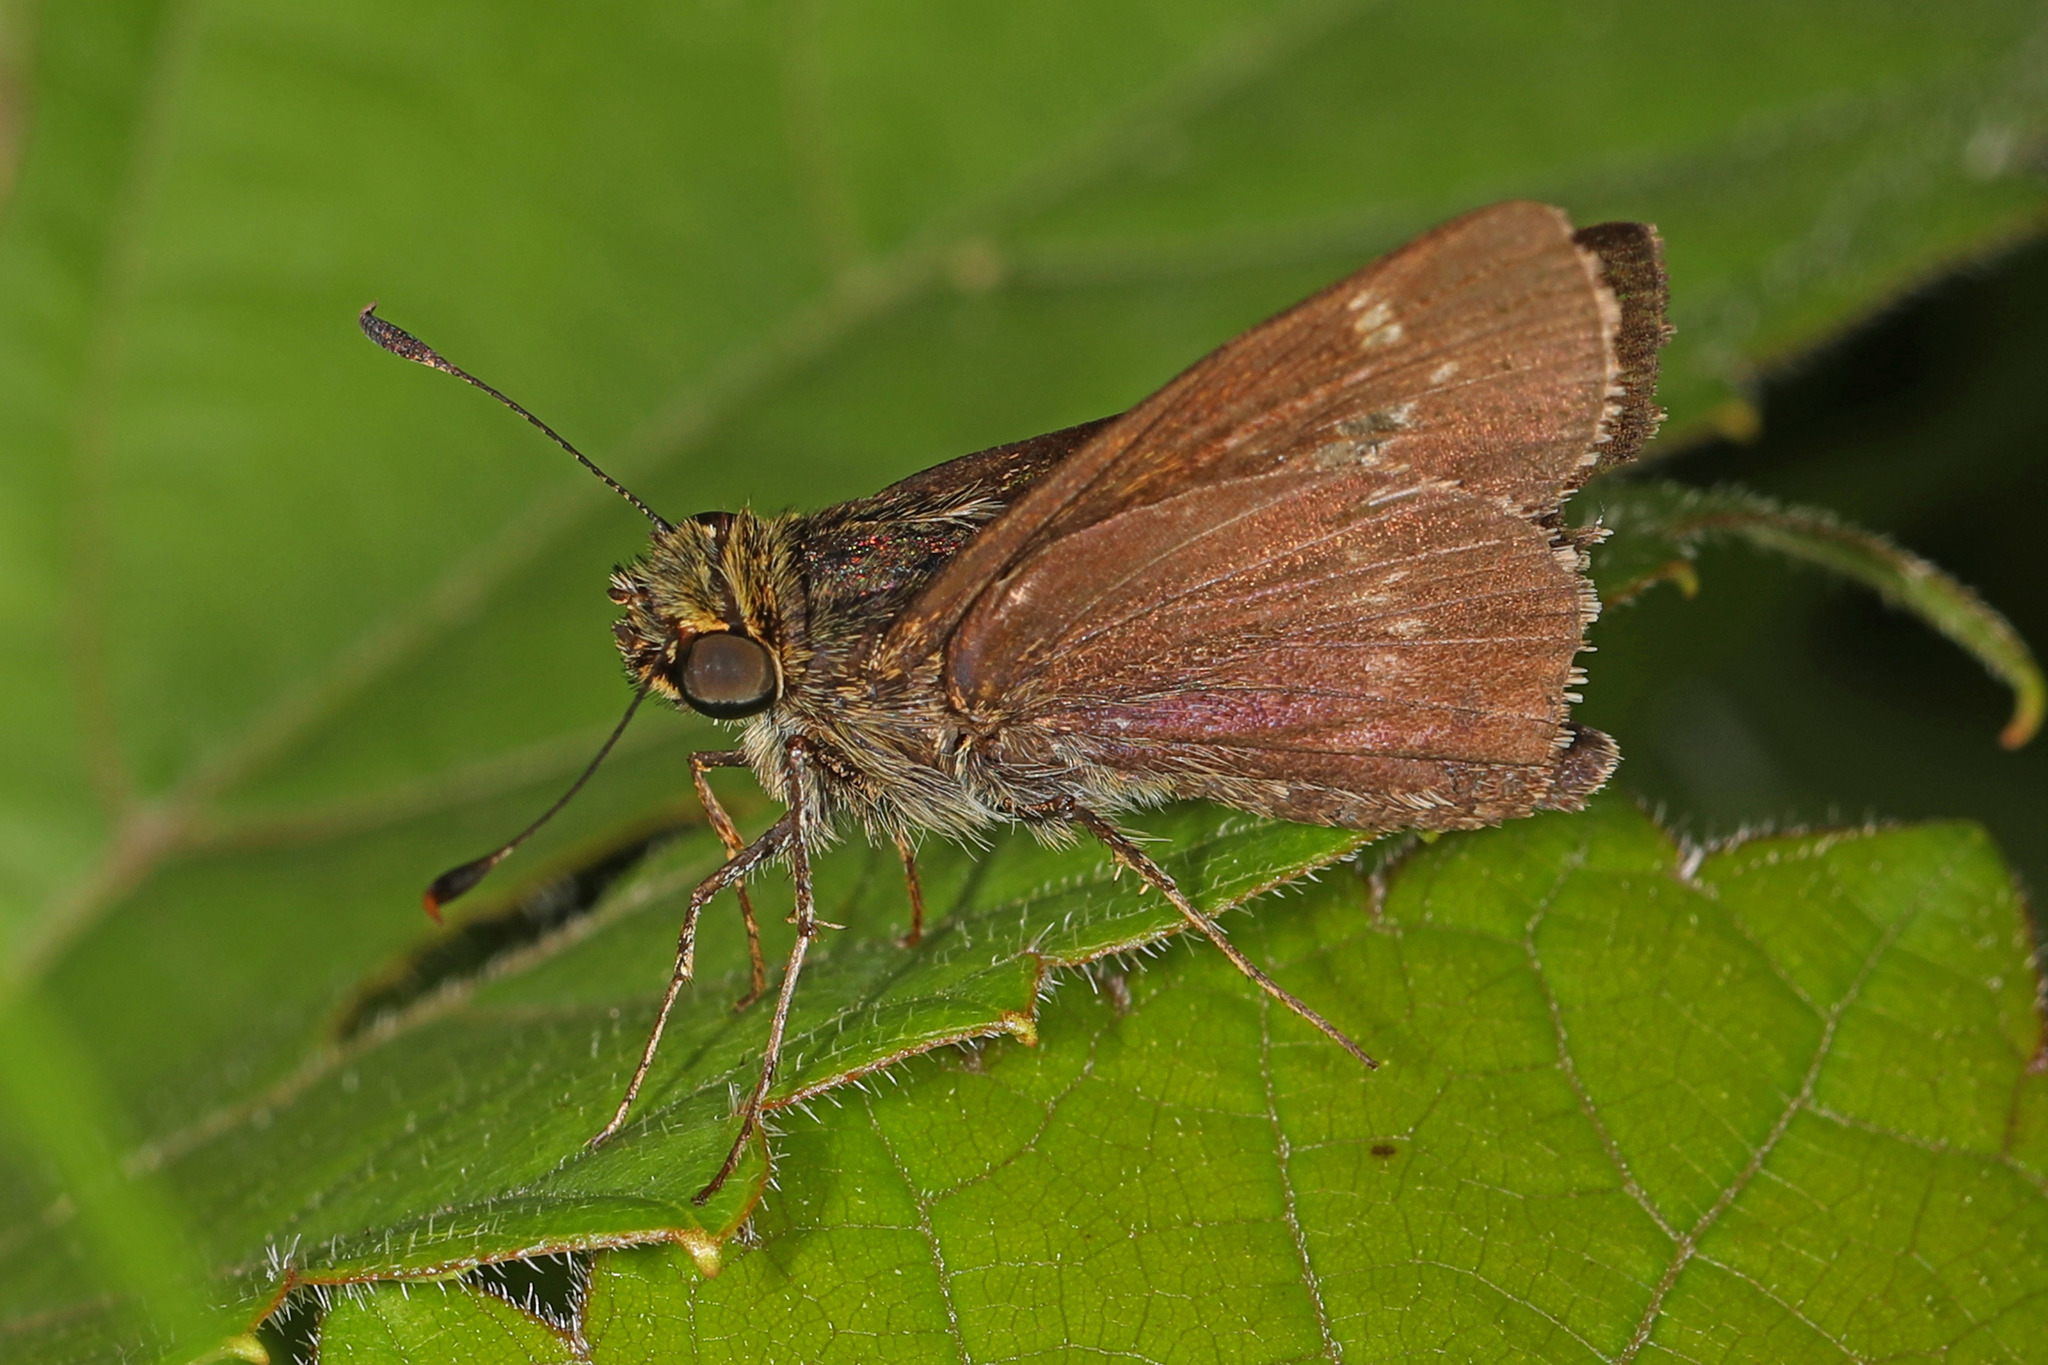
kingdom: Animalia
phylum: Arthropoda
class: Insecta
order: Lepidoptera
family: Hesperiidae
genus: Vernia
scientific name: Vernia verna
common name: Little glassywing
